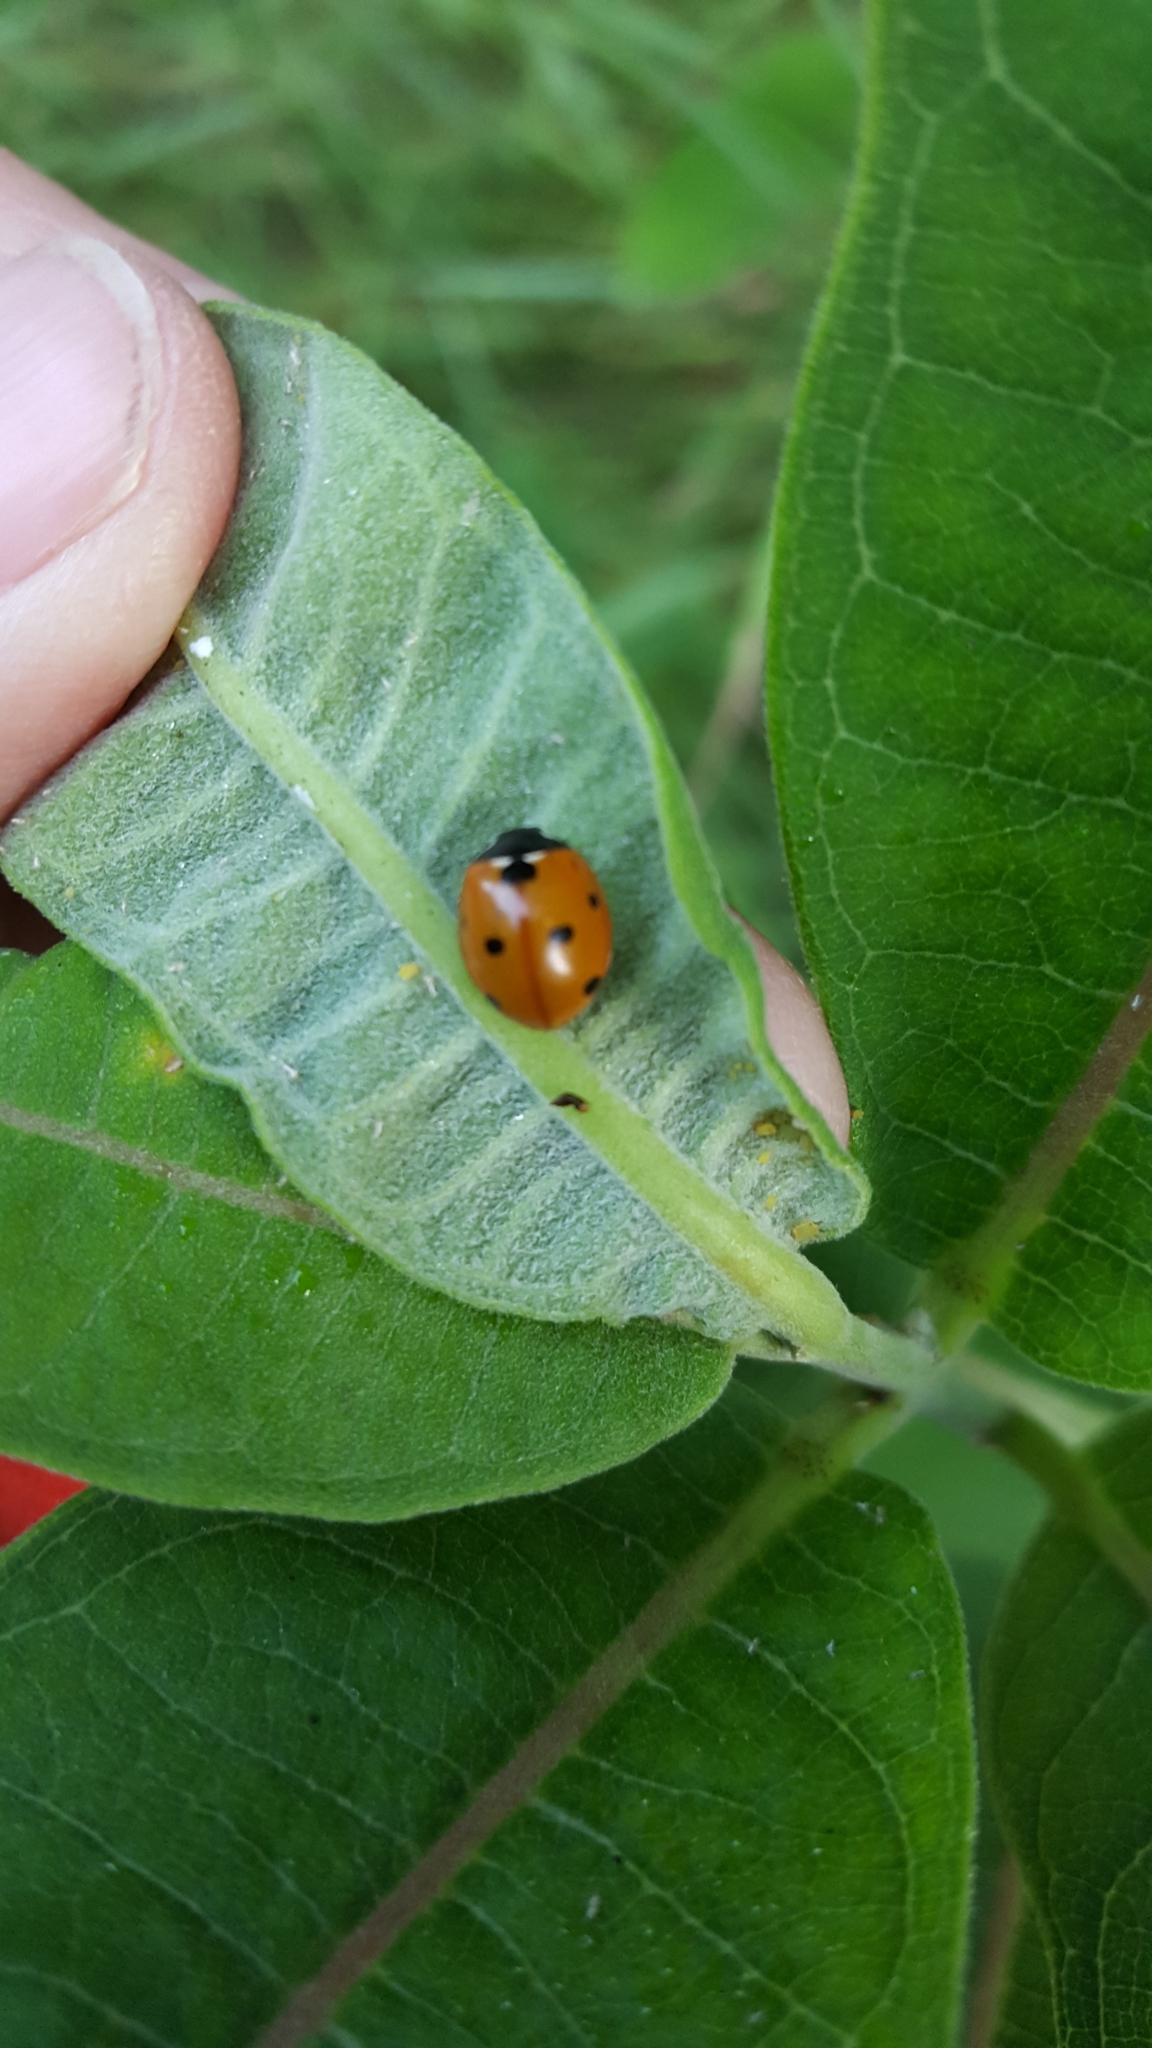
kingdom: Animalia
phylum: Arthropoda
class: Insecta
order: Coleoptera
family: Coccinellidae
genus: Coccinella
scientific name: Coccinella septempunctata
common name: Sevenspotted lady beetle
